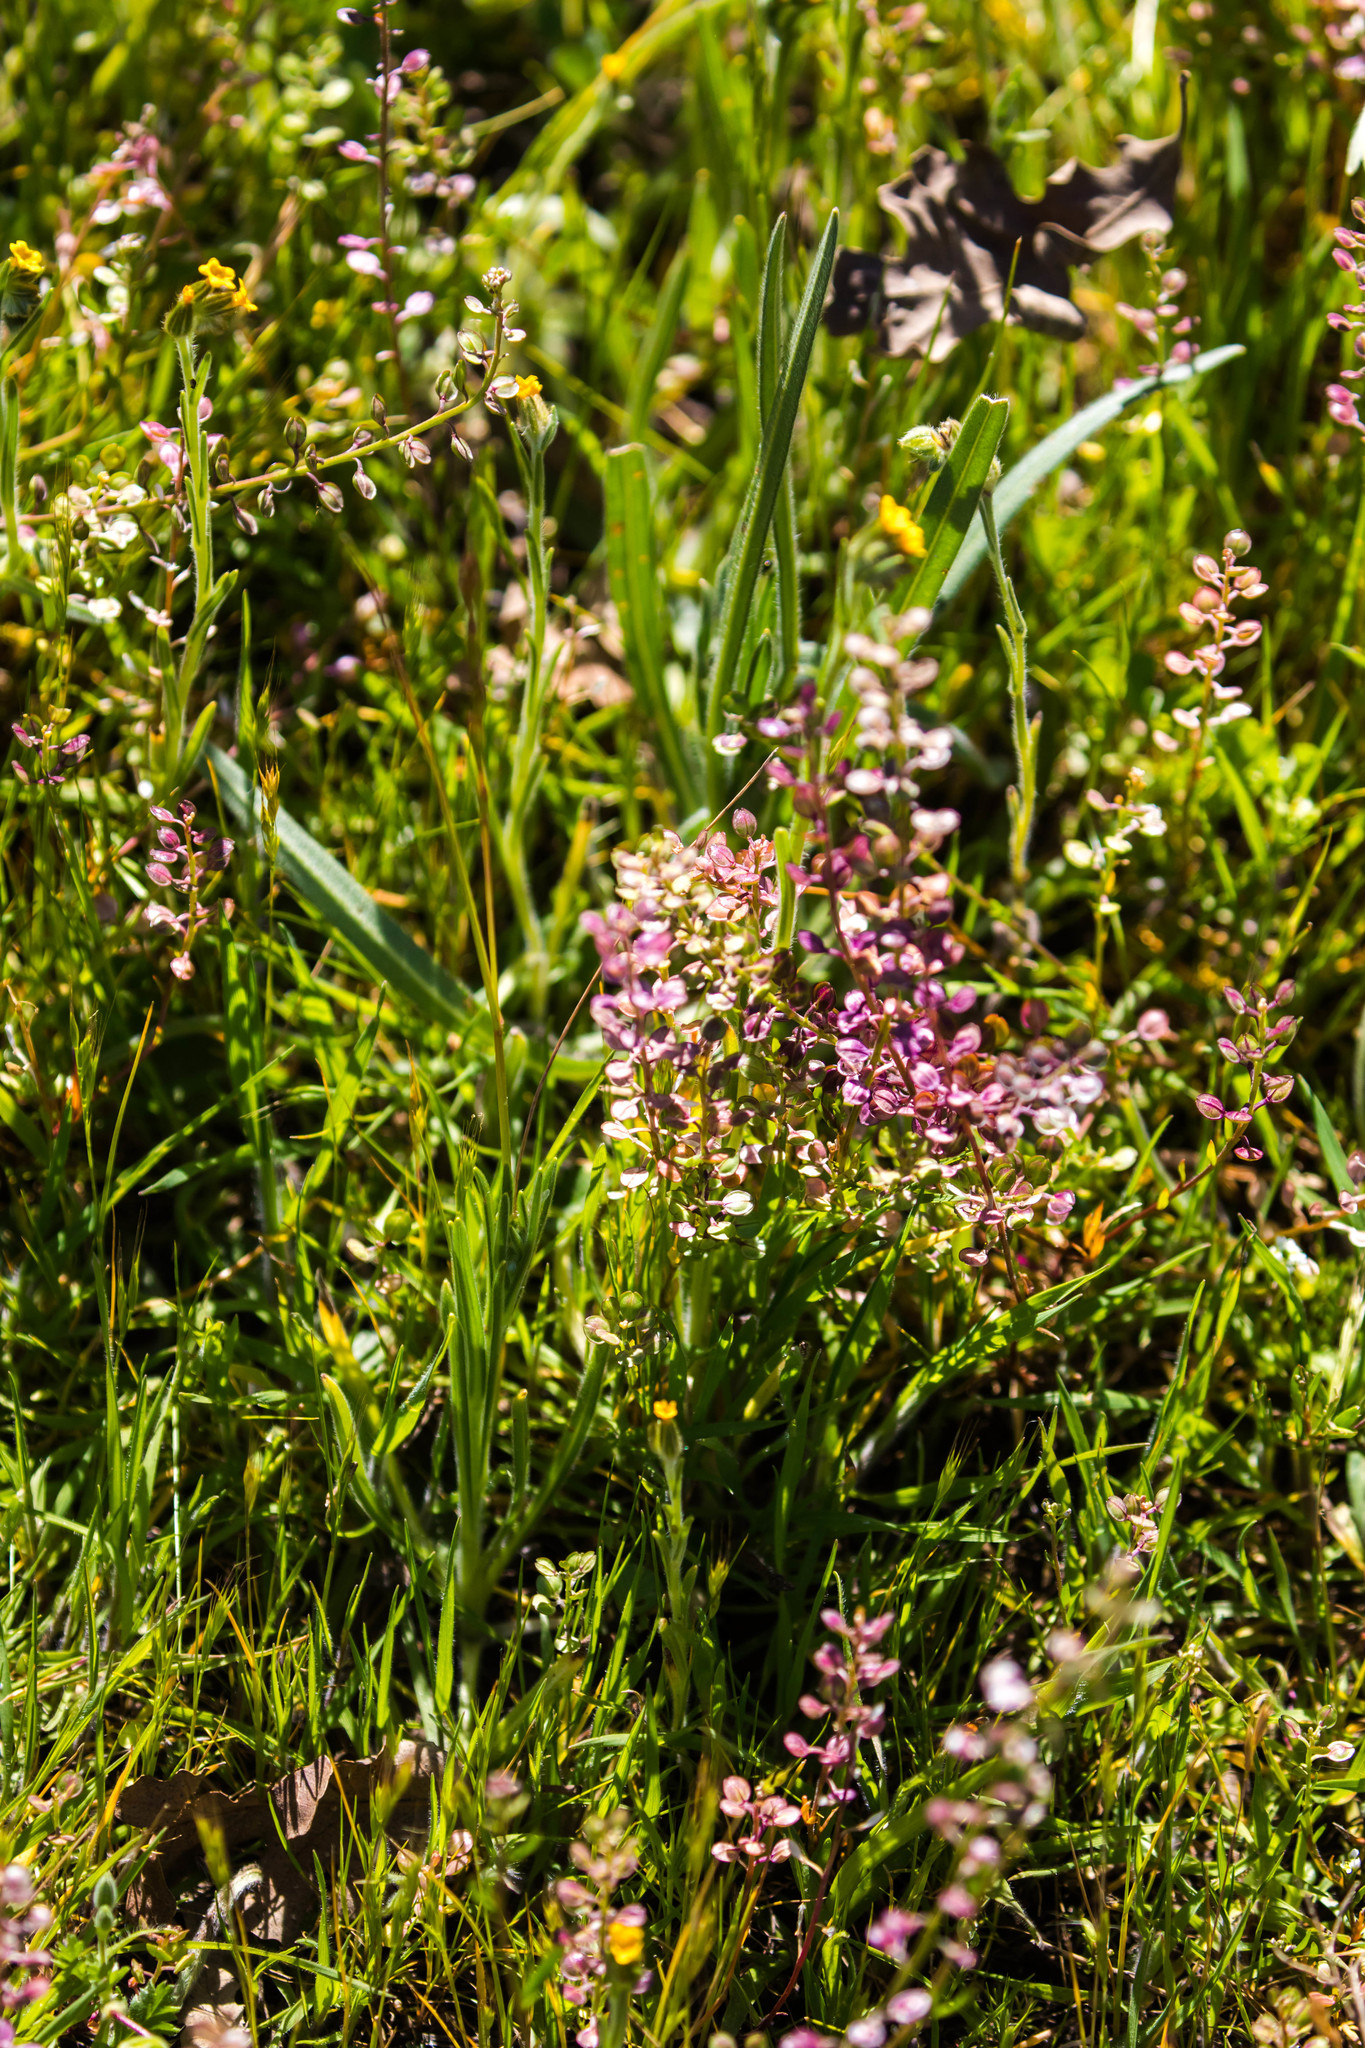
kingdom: Plantae
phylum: Tracheophyta
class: Magnoliopsida
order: Brassicales
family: Brassicaceae
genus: Lepidium
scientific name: Lepidium nitidum
